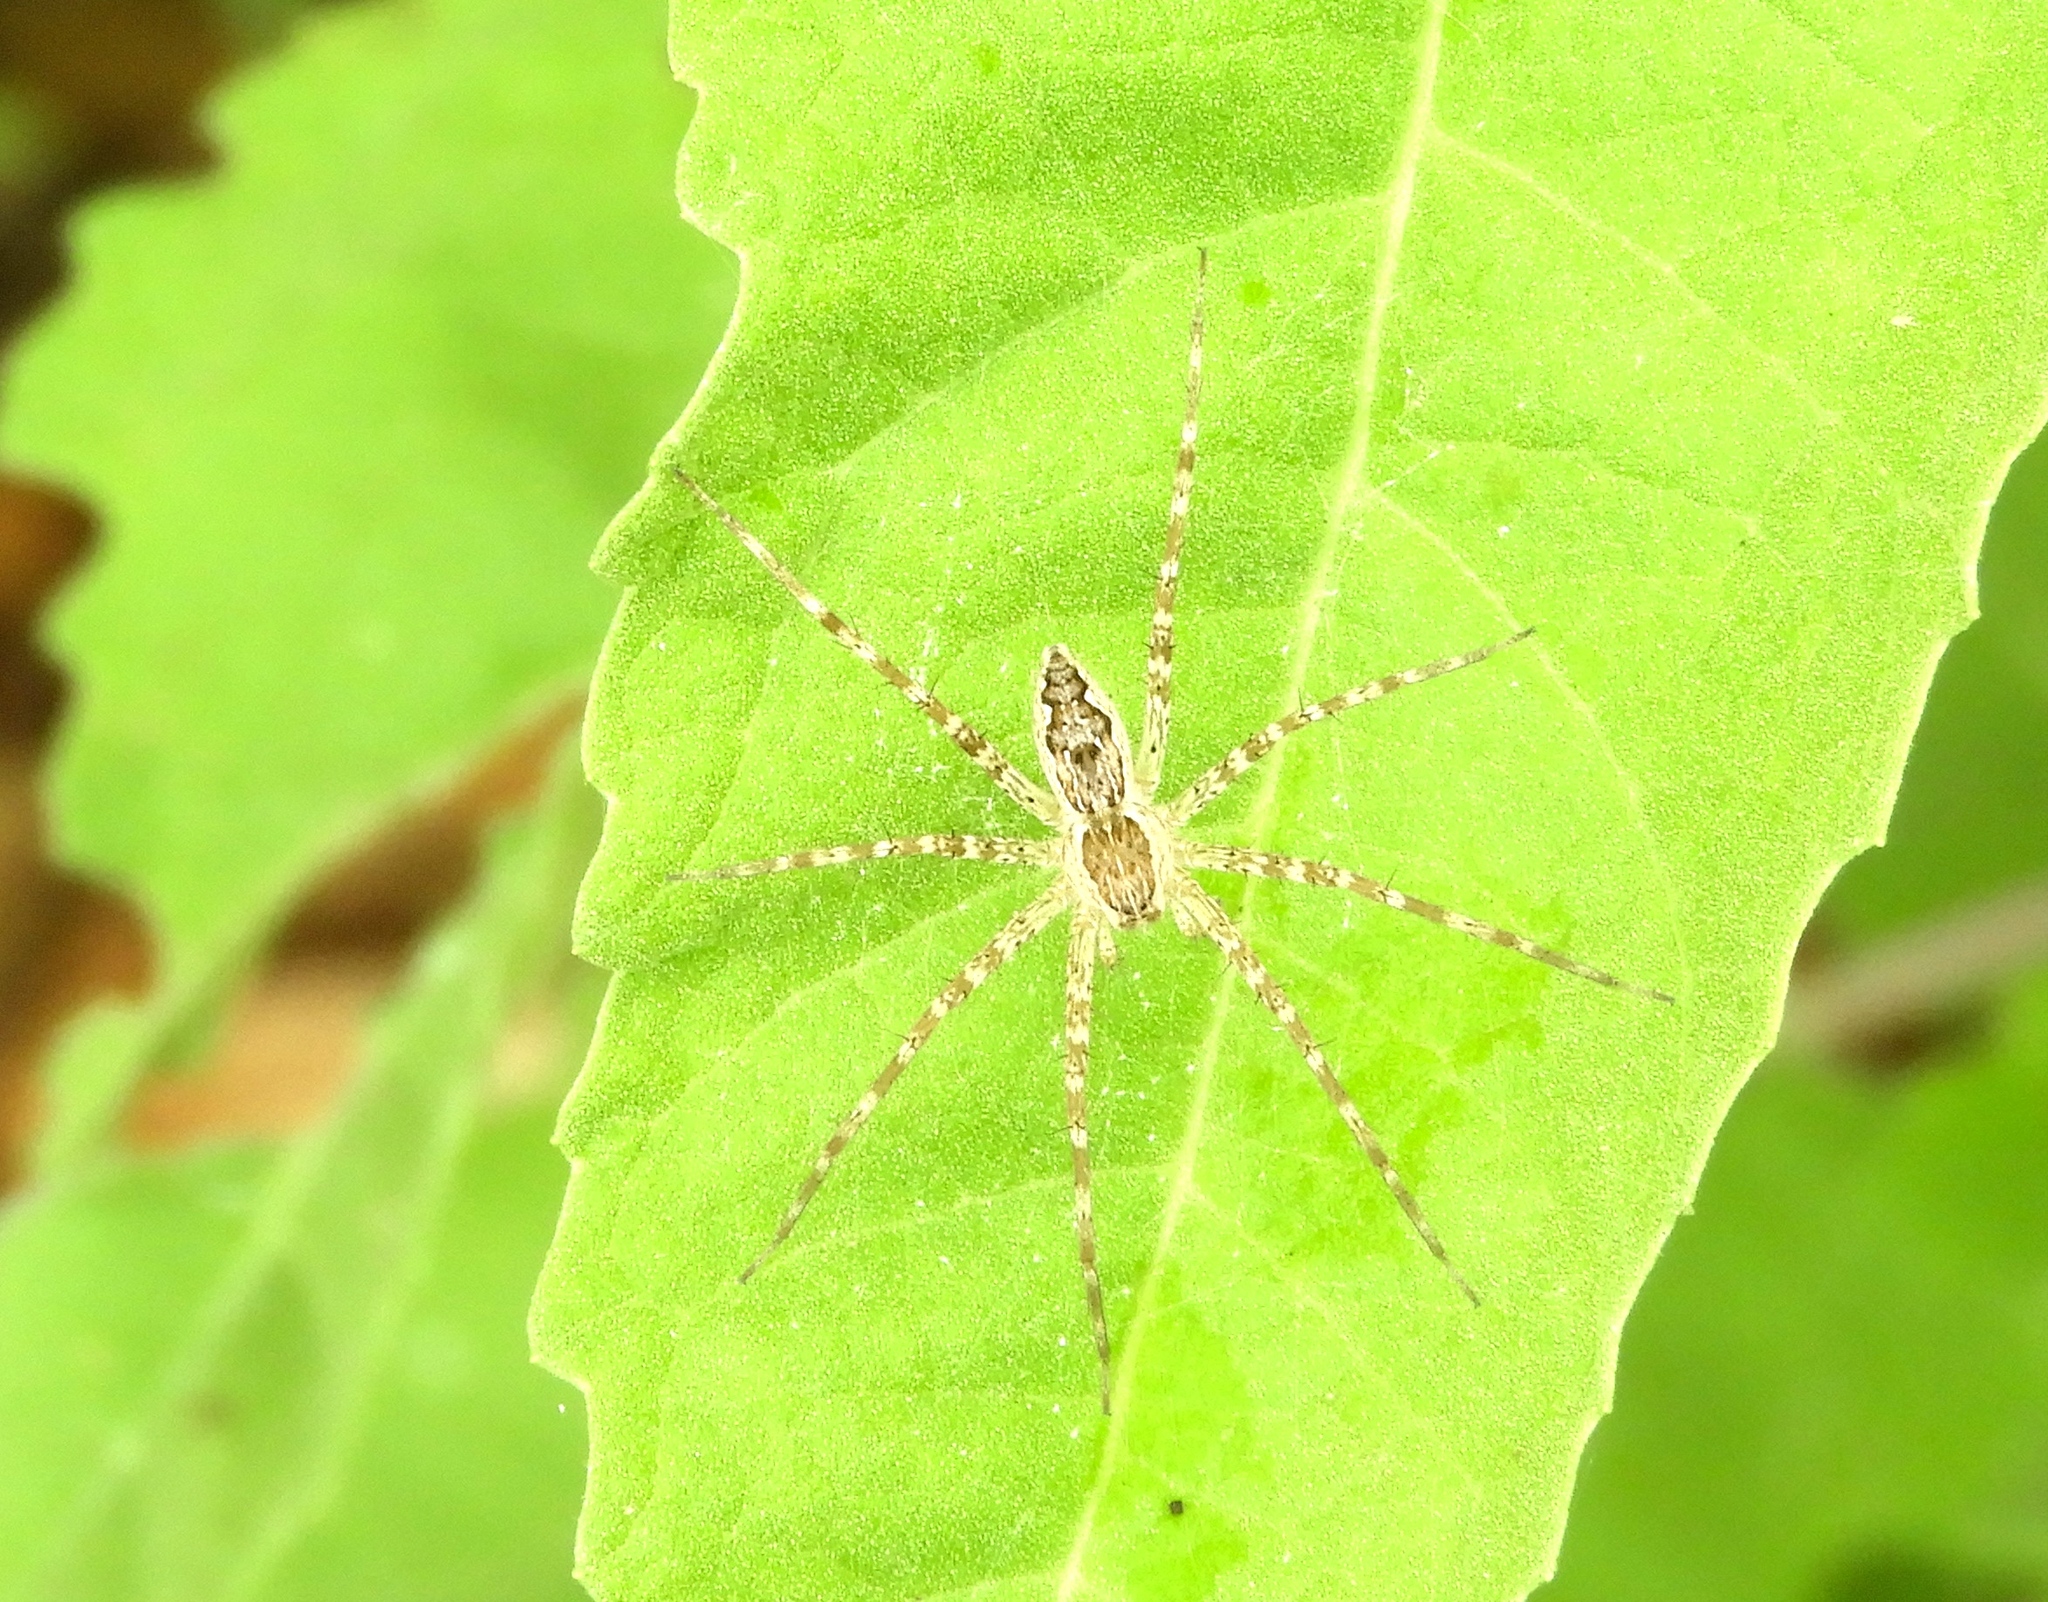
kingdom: Animalia
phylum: Arthropoda
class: Arachnida
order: Araneae
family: Pisauridae
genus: Tinus
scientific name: Tinus
